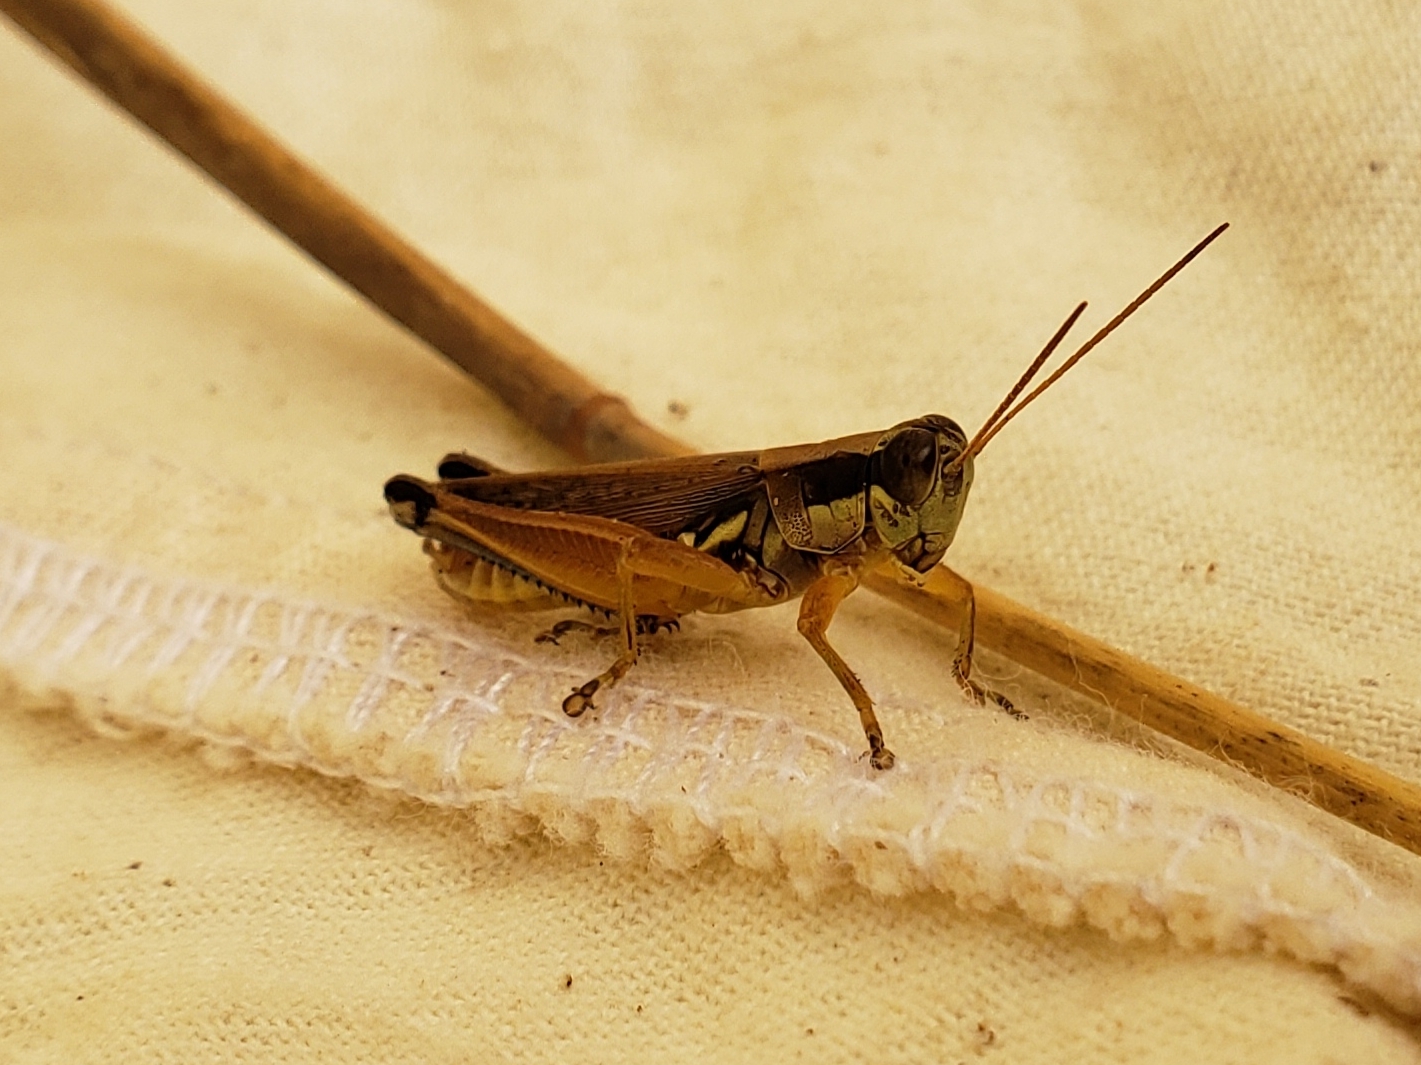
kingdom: Animalia
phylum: Arthropoda
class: Insecta
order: Orthoptera
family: Acrididae
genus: Paroxya
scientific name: Paroxya atlantica
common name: Atlantic grasshopper
